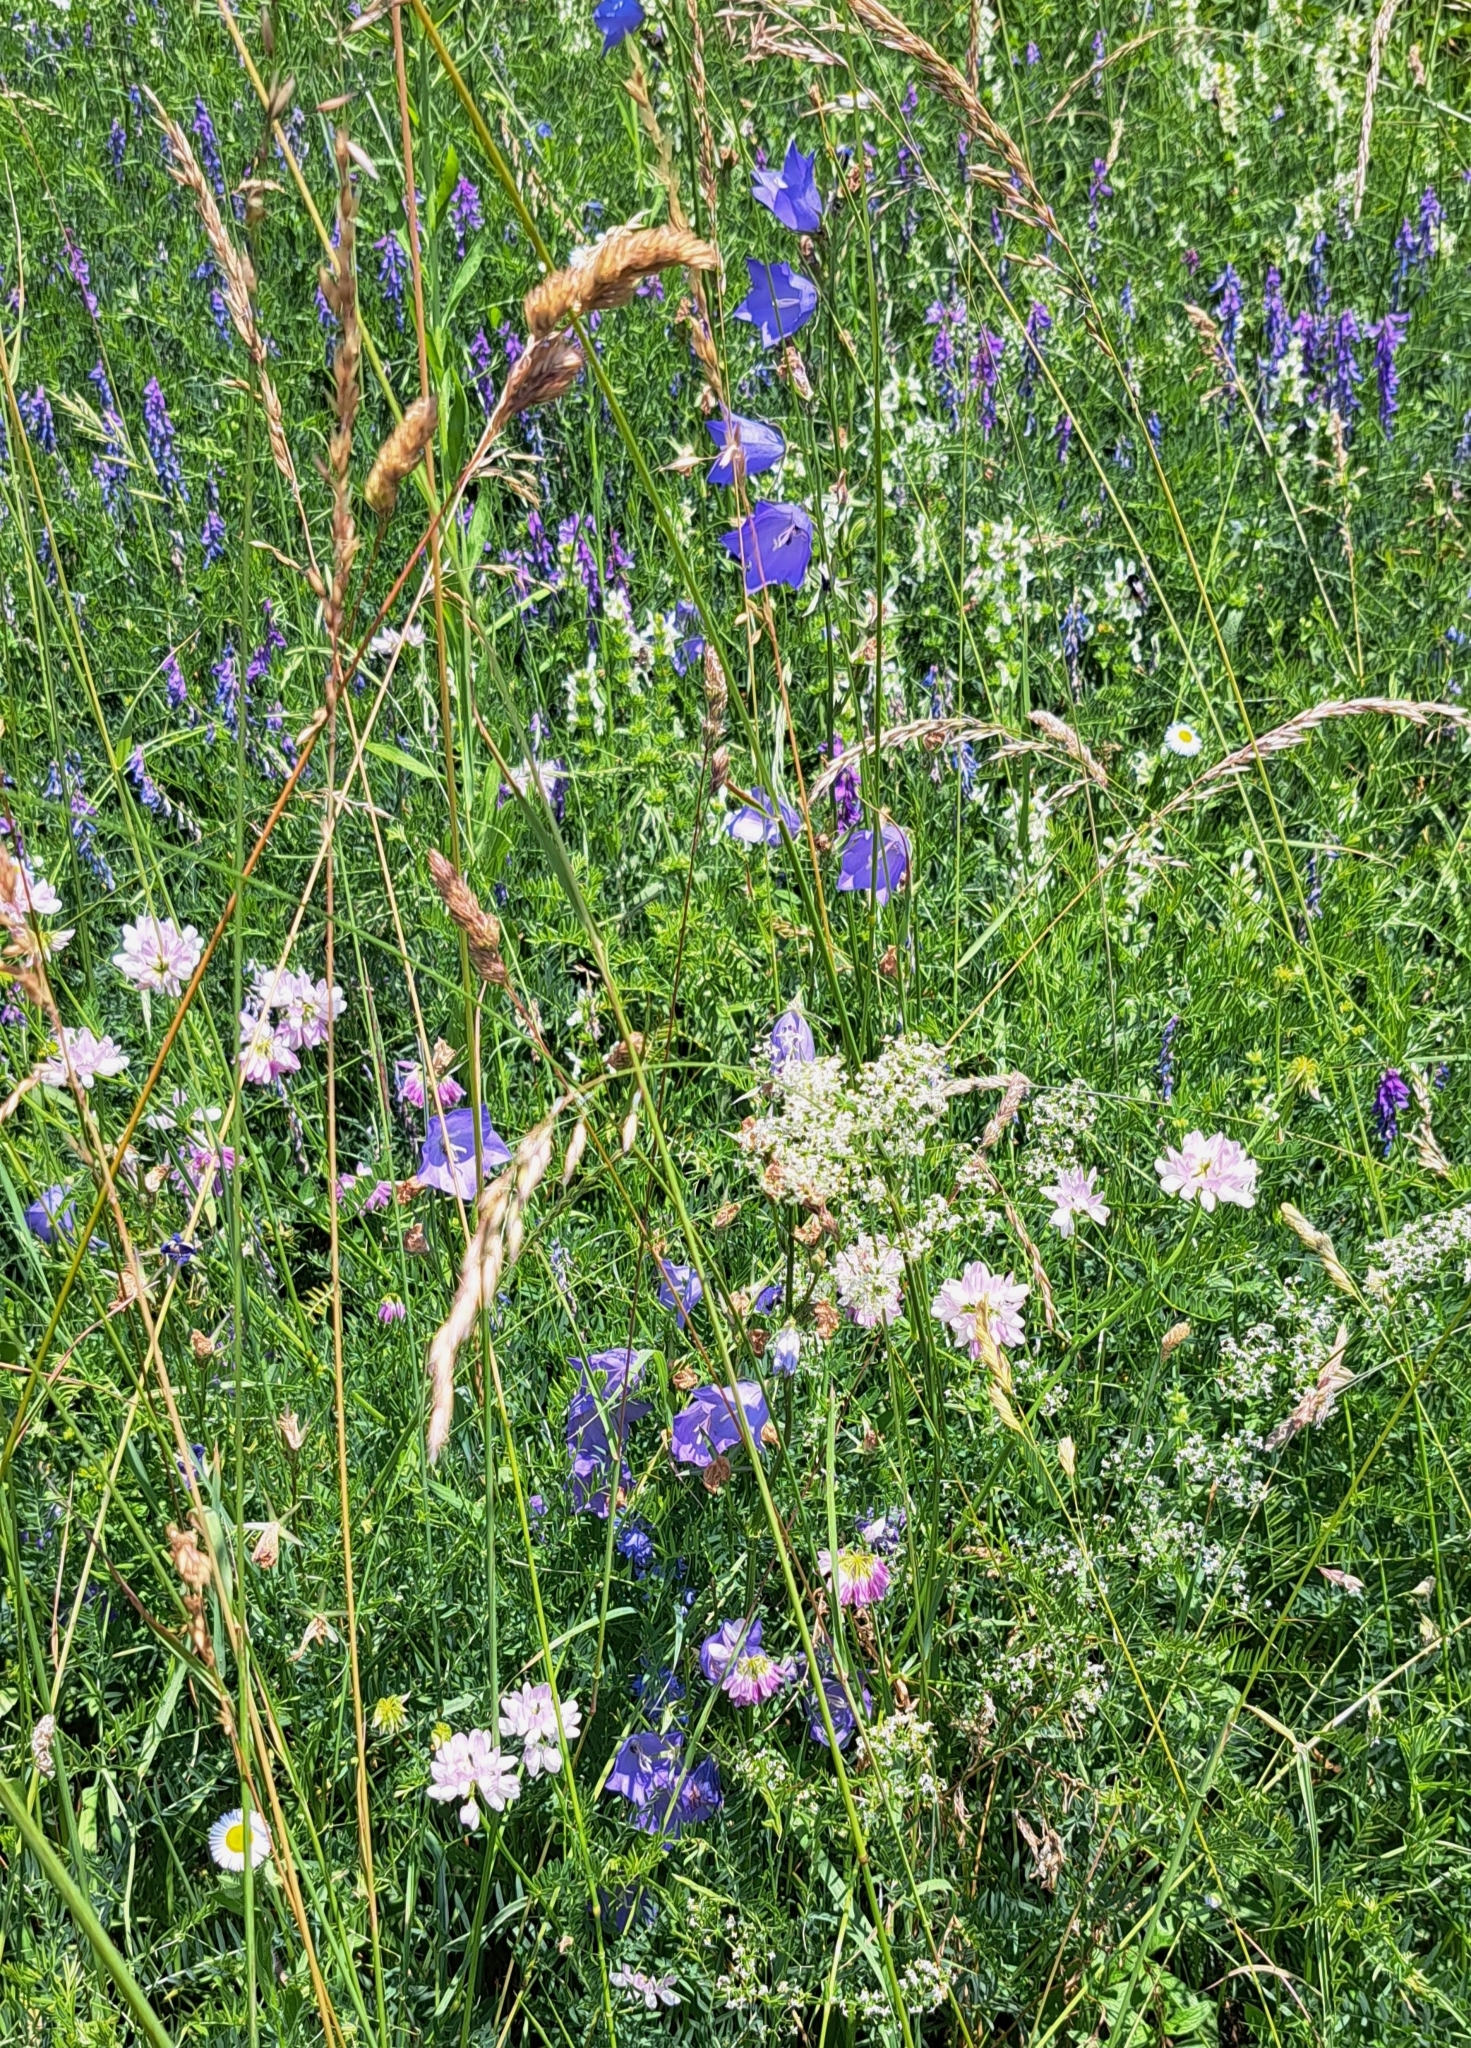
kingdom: Plantae
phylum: Tracheophyta
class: Magnoliopsida
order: Asterales
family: Campanulaceae
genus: Campanula
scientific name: Campanula persicifolia
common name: Peach-leaved bellflower
